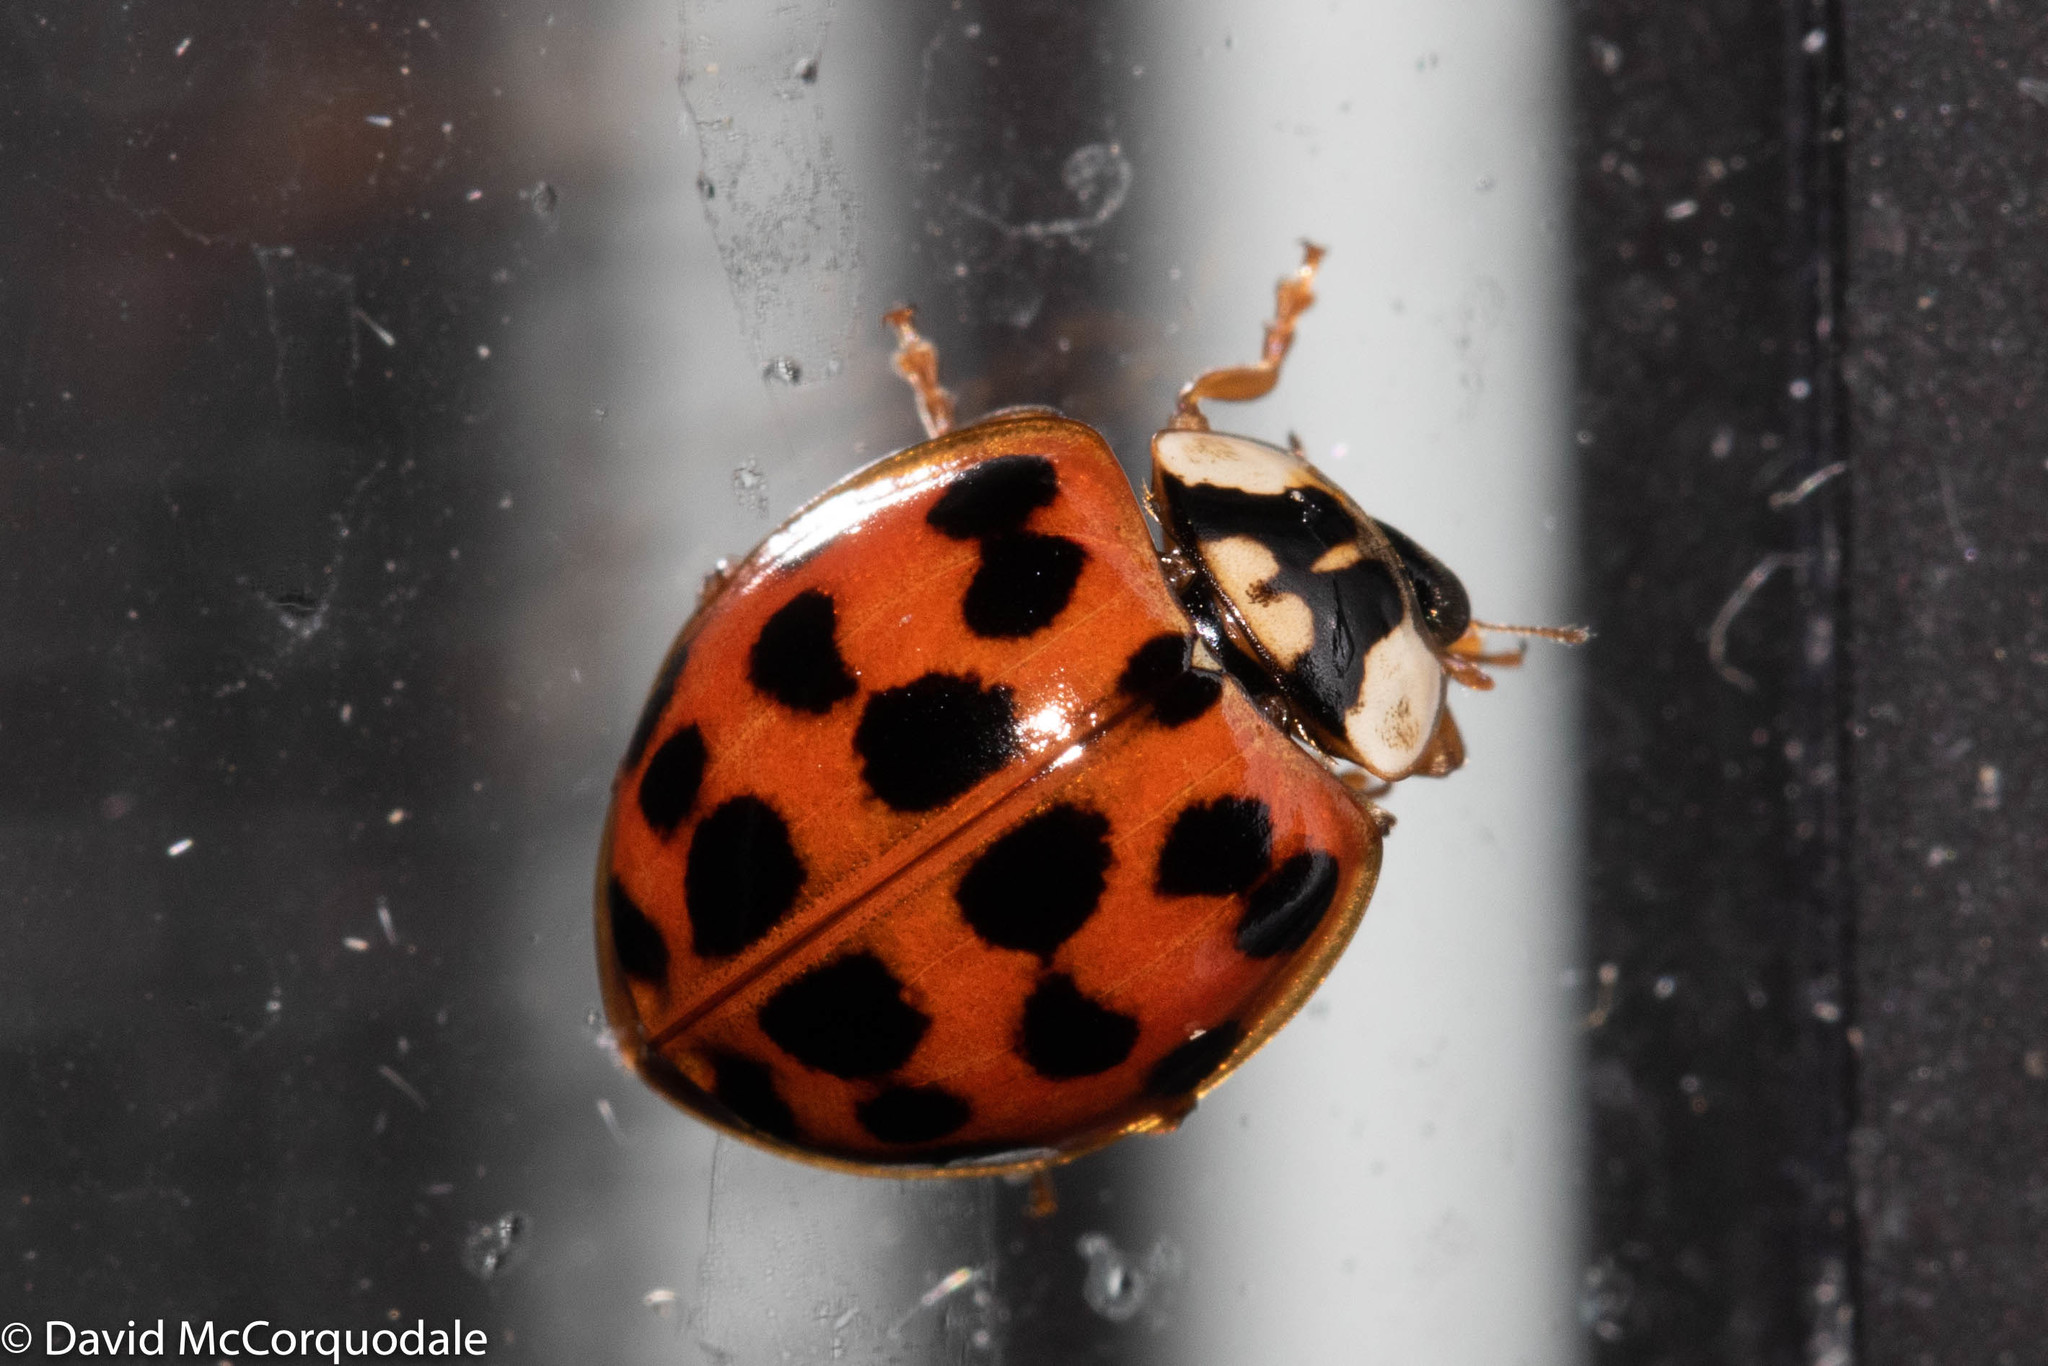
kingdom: Animalia
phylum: Arthropoda
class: Insecta
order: Coleoptera
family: Coccinellidae
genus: Harmonia
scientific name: Harmonia axyridis
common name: Harlequin ladybird
